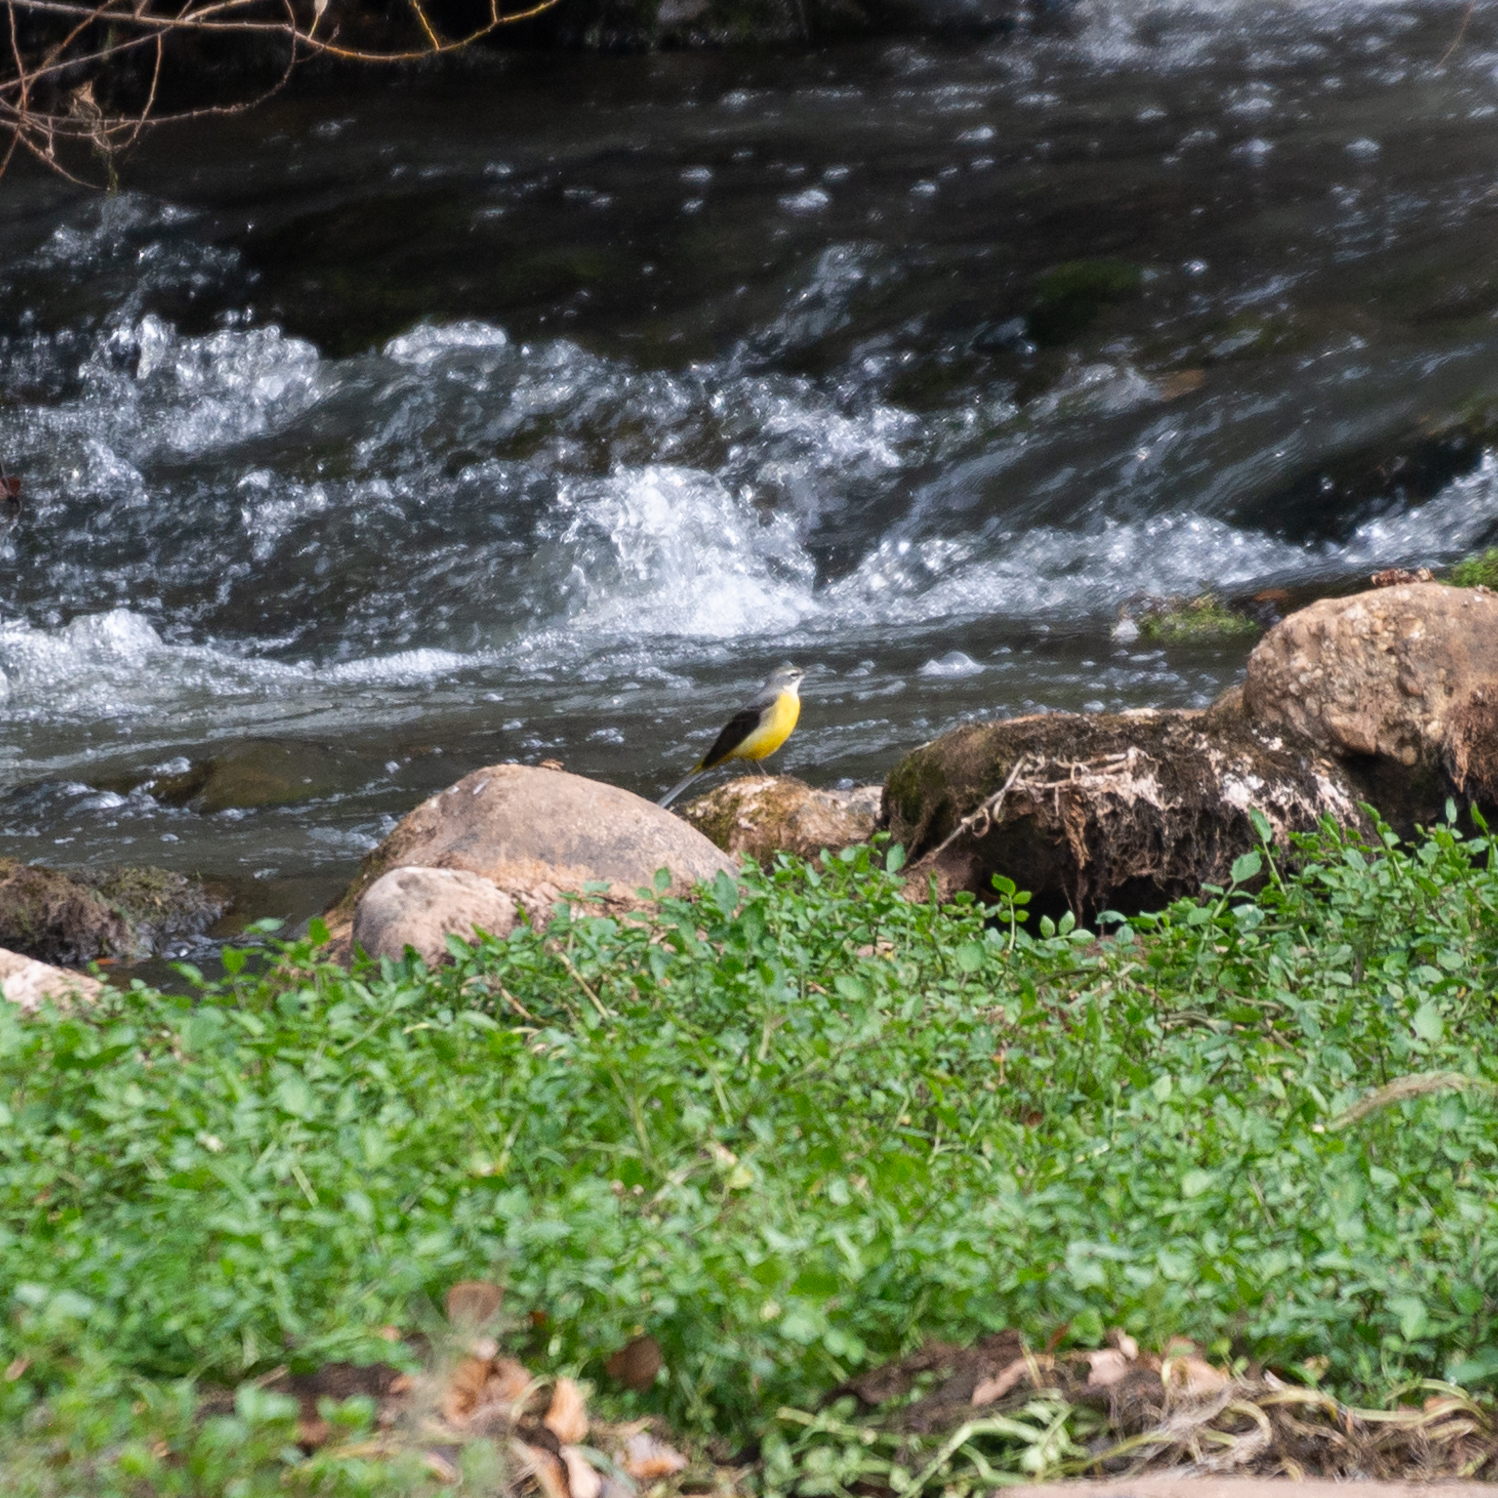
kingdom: Animalia
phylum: Chordata
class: Aves
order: Passeriformes
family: Motacillidae
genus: Motacilla
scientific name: Motacilla cinerea
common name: Grey wagtail
